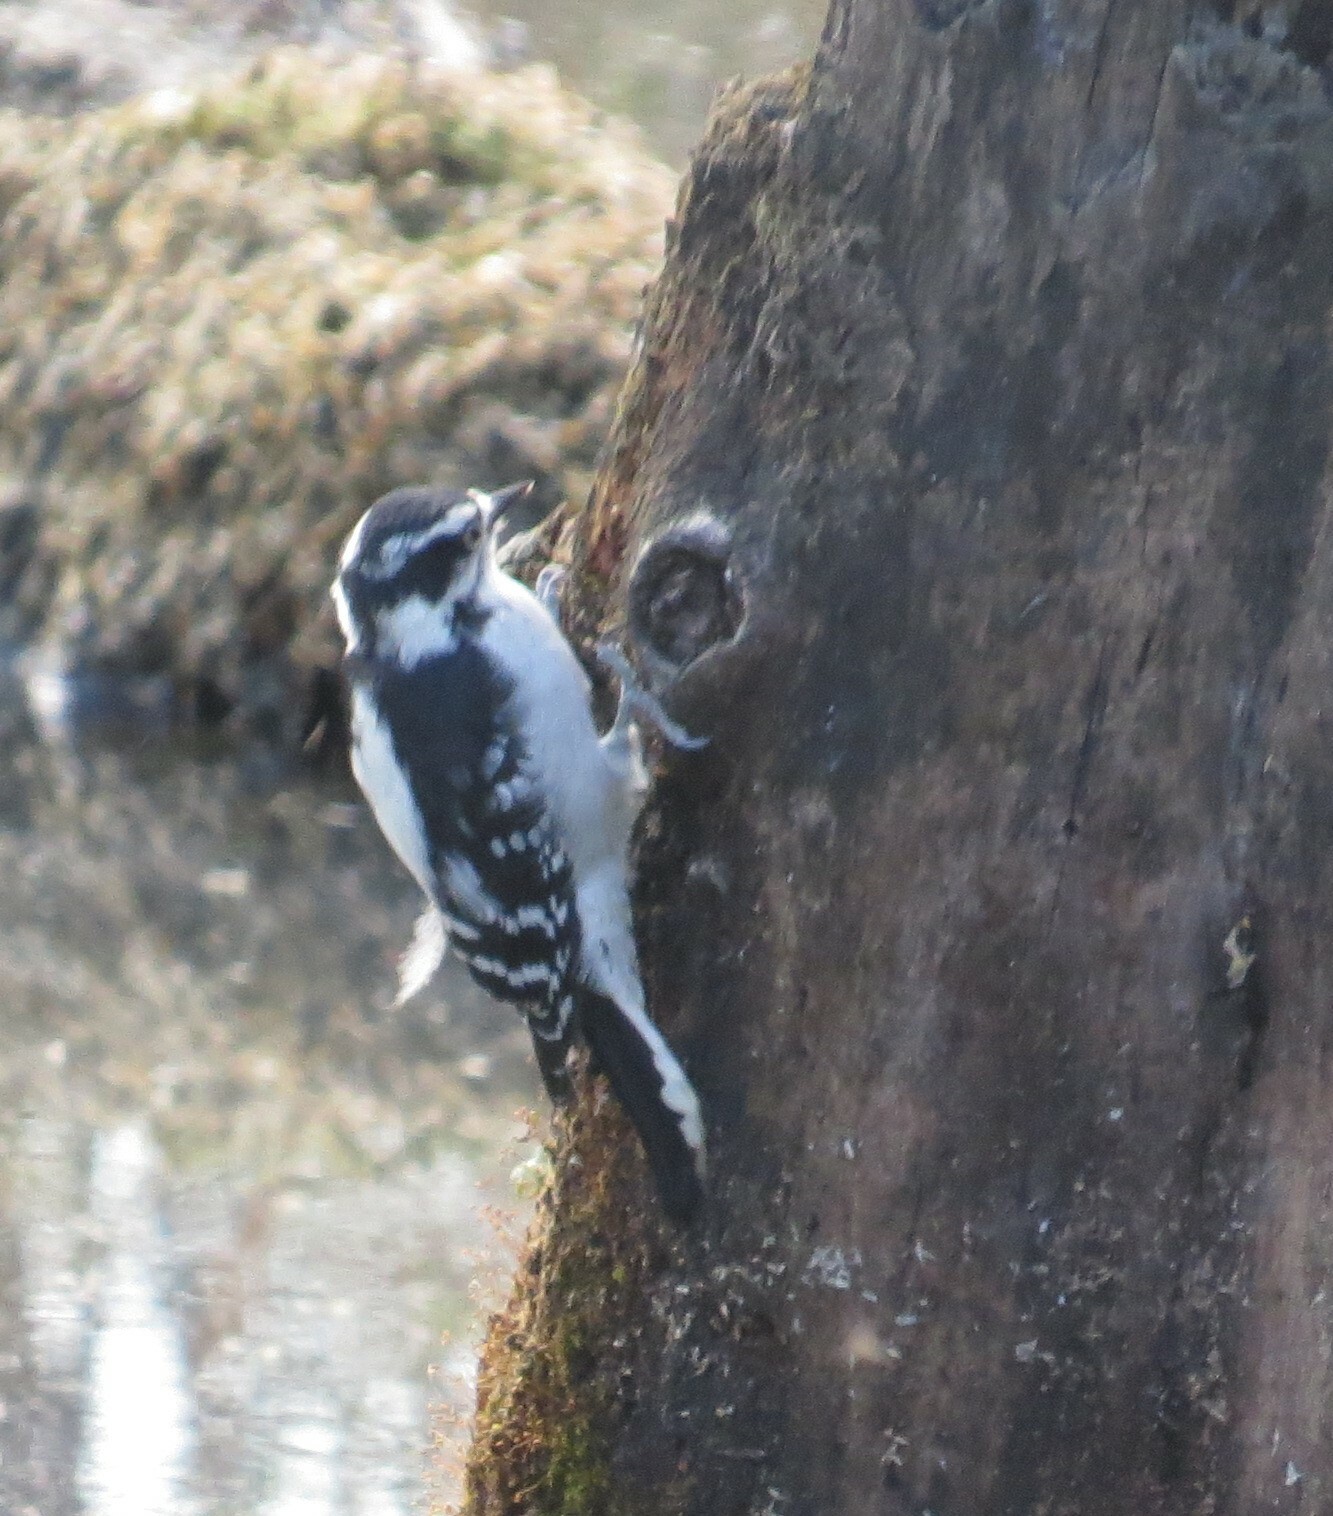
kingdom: Animalia
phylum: Chordata
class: Aves
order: Piciformes
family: Picidae
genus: Dryobates
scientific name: Dryobates pubescens
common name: Downy woodpecker
